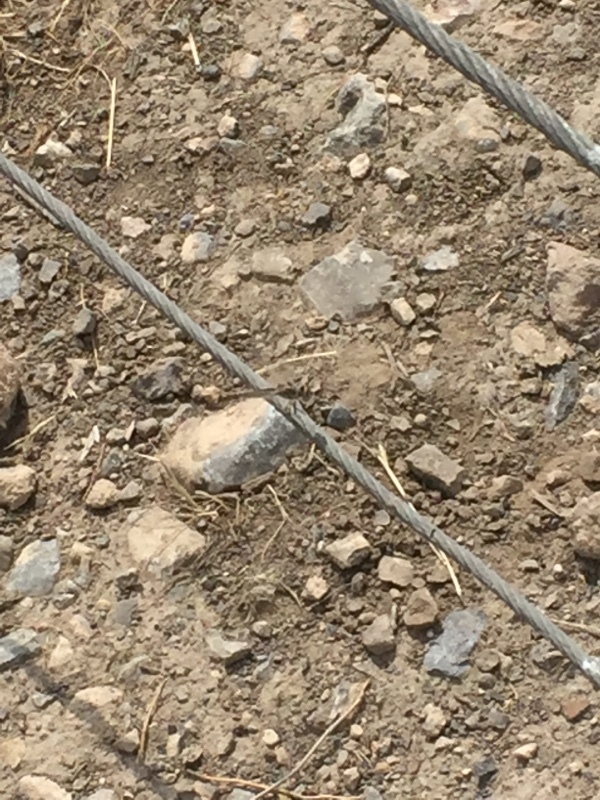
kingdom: Animalia
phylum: Arthropoda
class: Insecta
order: Odonata
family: Libellulidae
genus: Selysiothemis
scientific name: Selysiothemis nigra
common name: Black pennant
